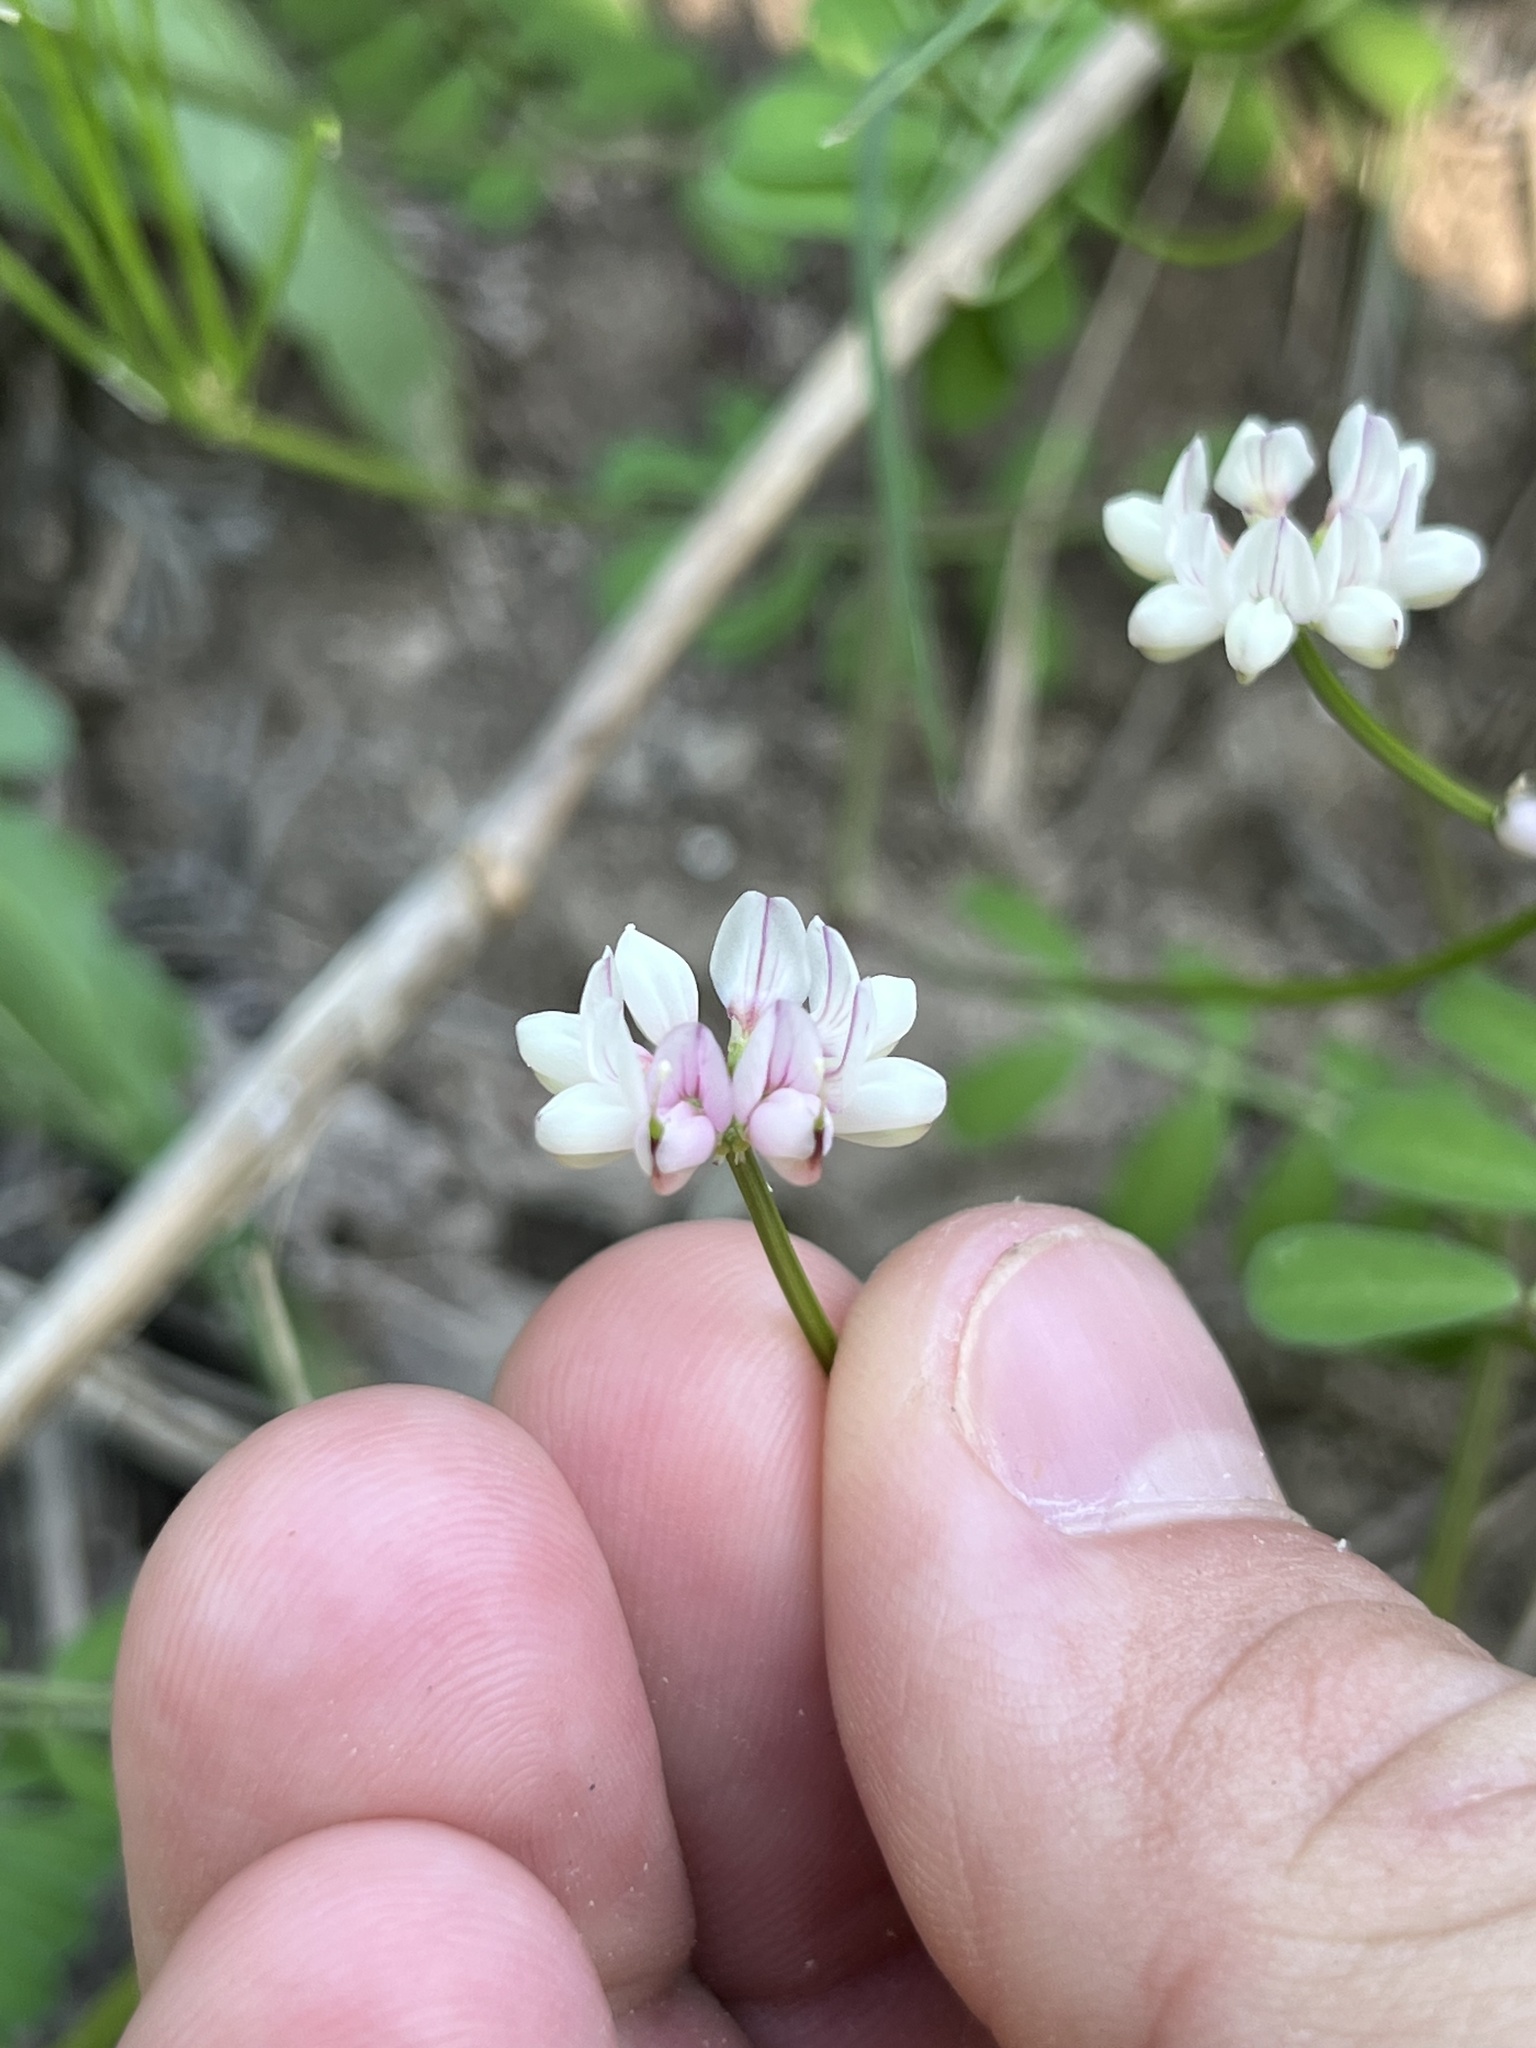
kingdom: Plantae
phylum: Tracheophyta
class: Magnoliopsida
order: Fabales
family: Fabaceae
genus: Coronilla
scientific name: Coronilla cretica
